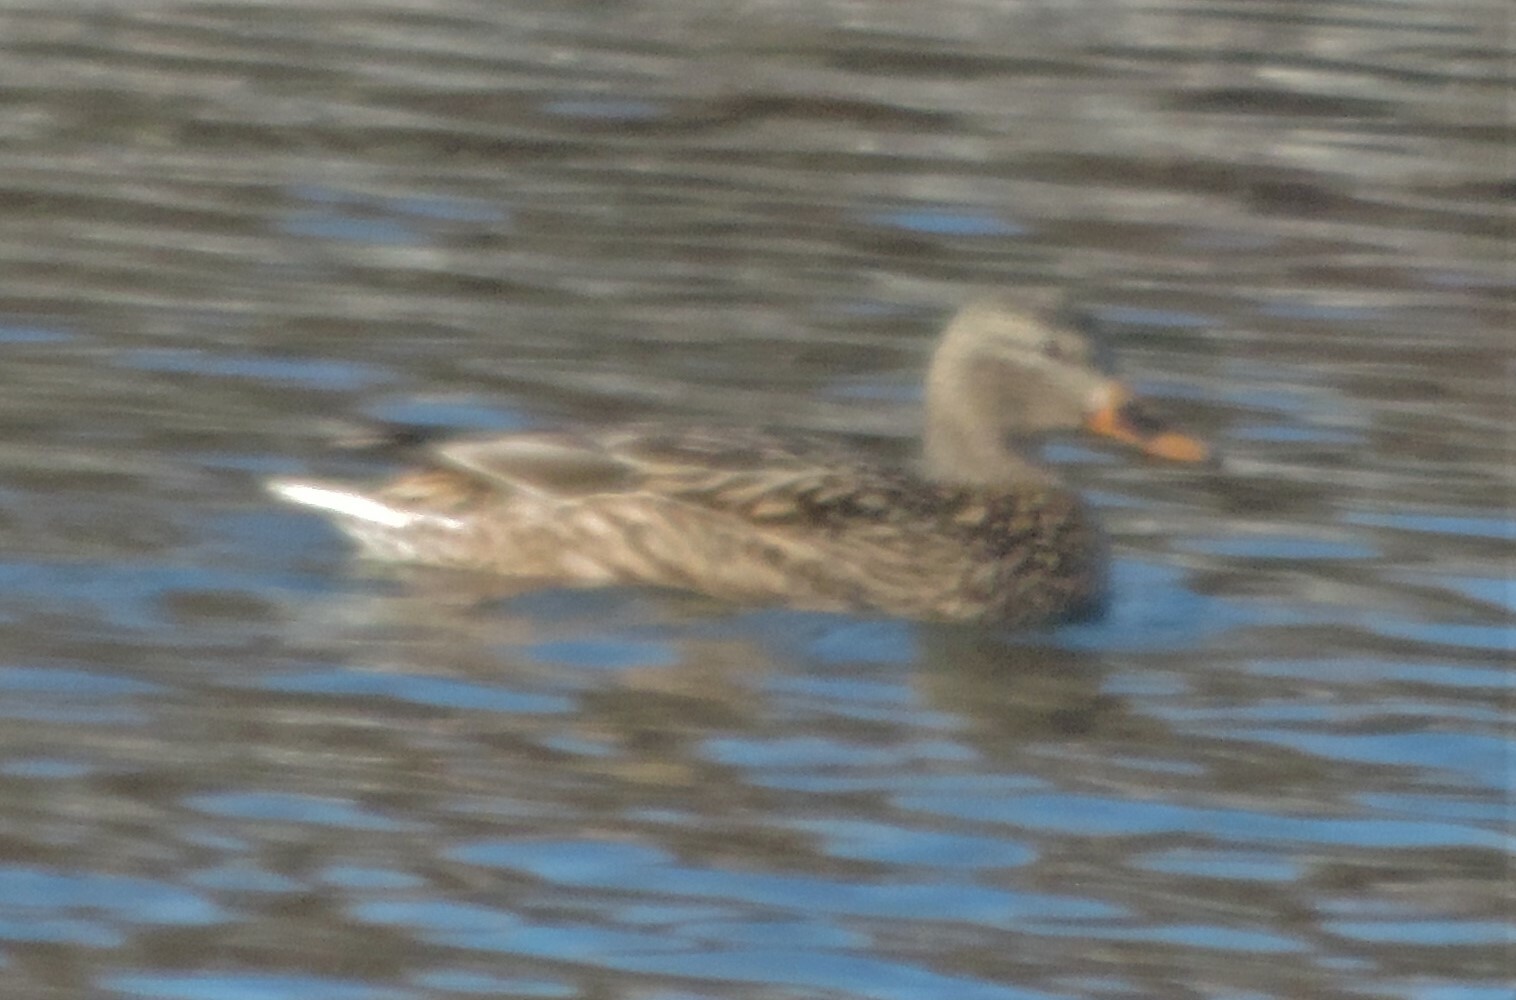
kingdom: Animalia
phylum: Chordata
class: Aves
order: Anseriformes
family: Anatidae
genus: Anas
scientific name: Anas platyrhynchos
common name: Mallard
